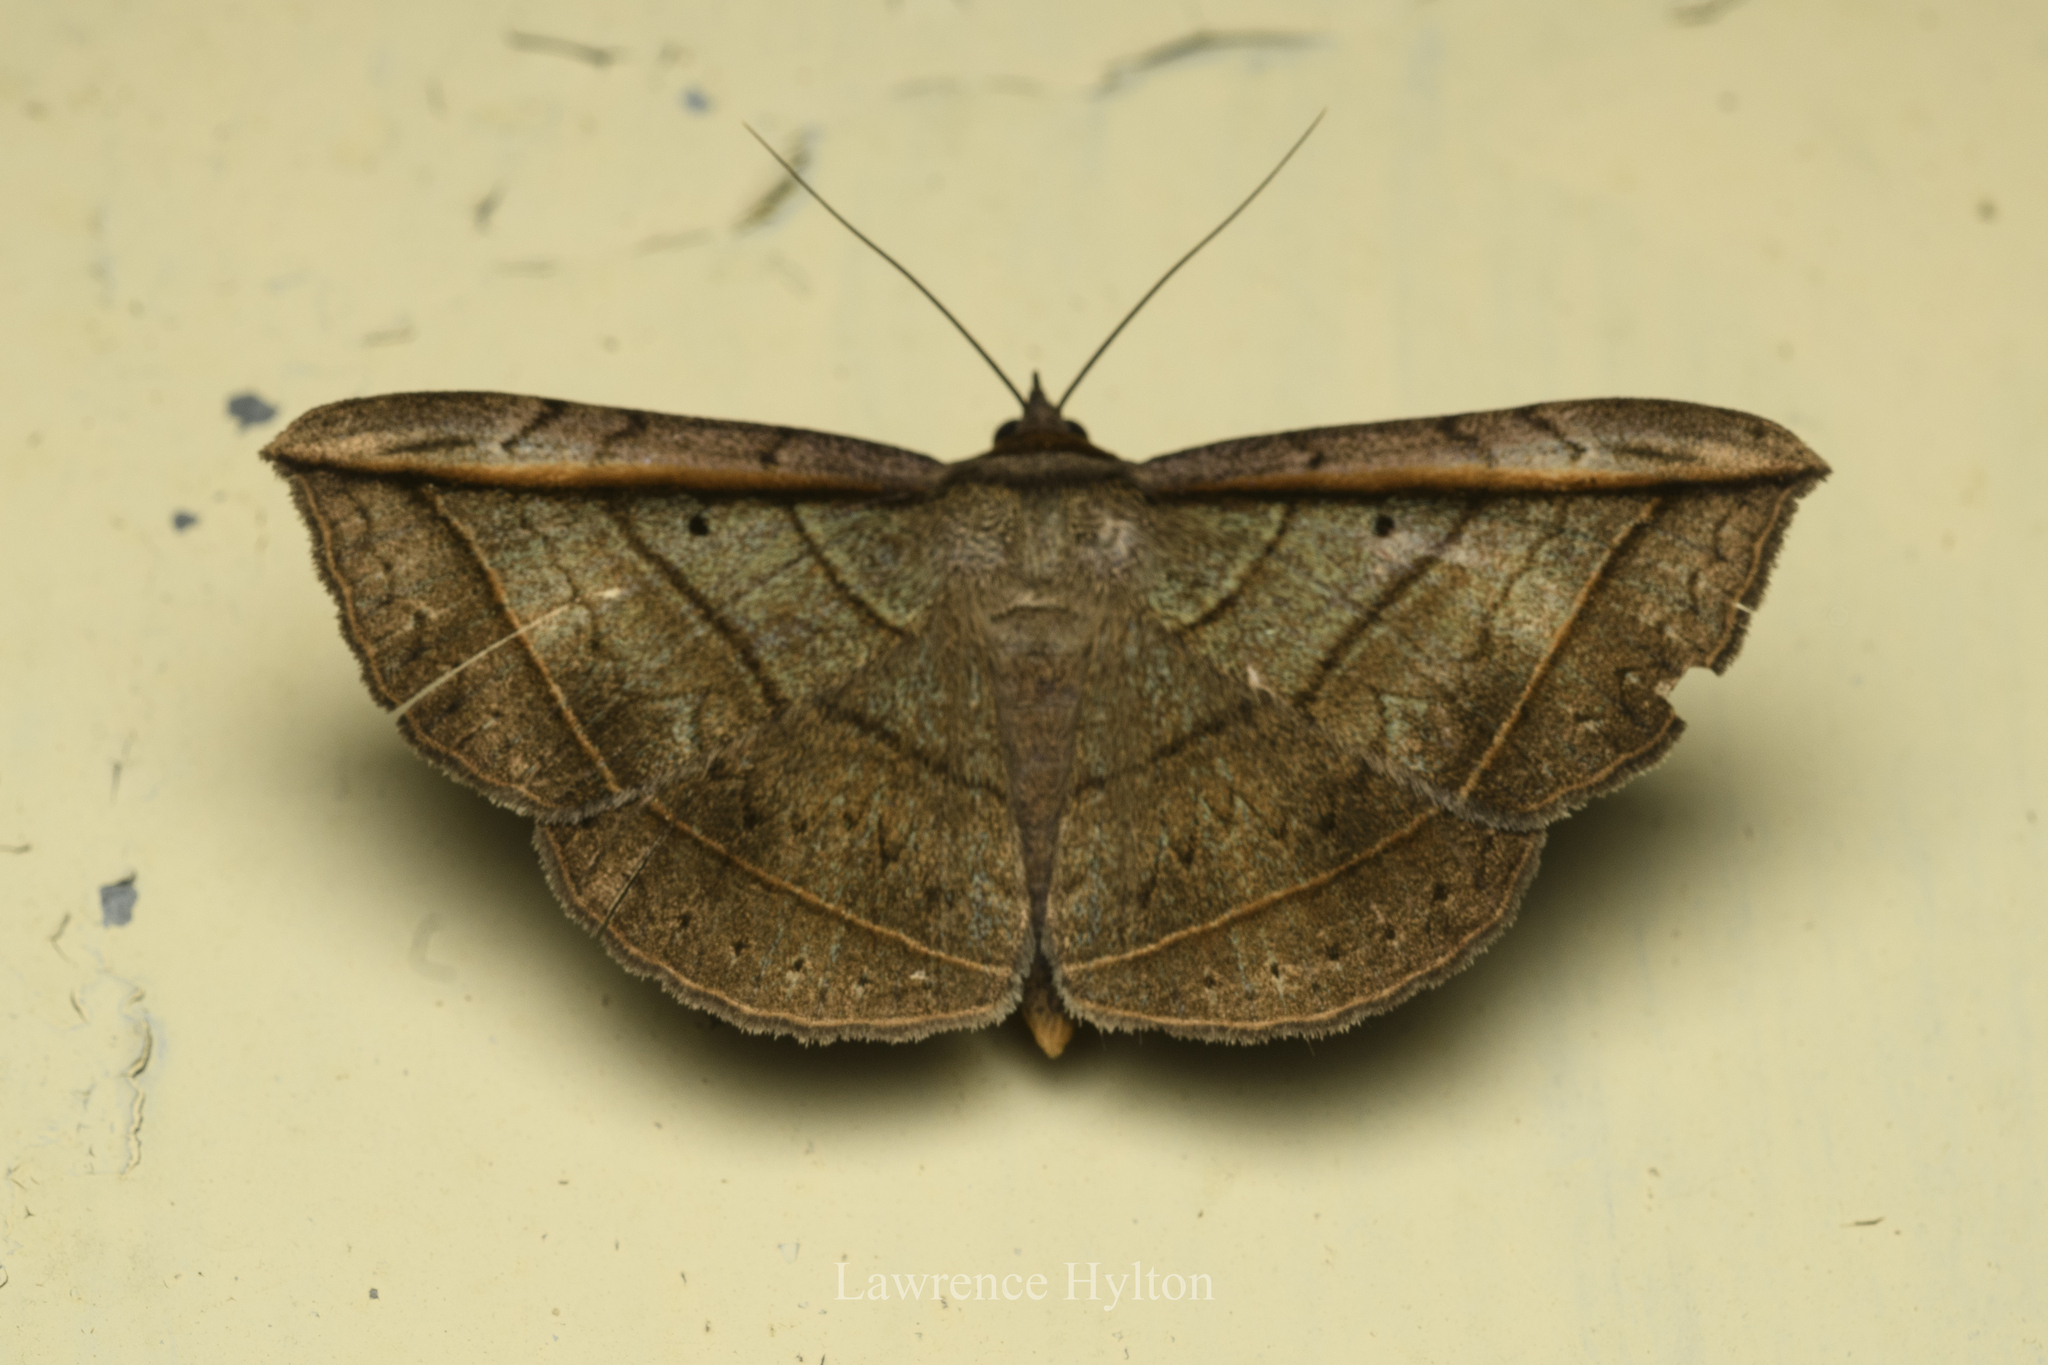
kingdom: Animalia
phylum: Arthropoda
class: Insecta
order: Lepidoptera
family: Erebidae
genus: Entomogramma
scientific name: Entomogramma fautrix
